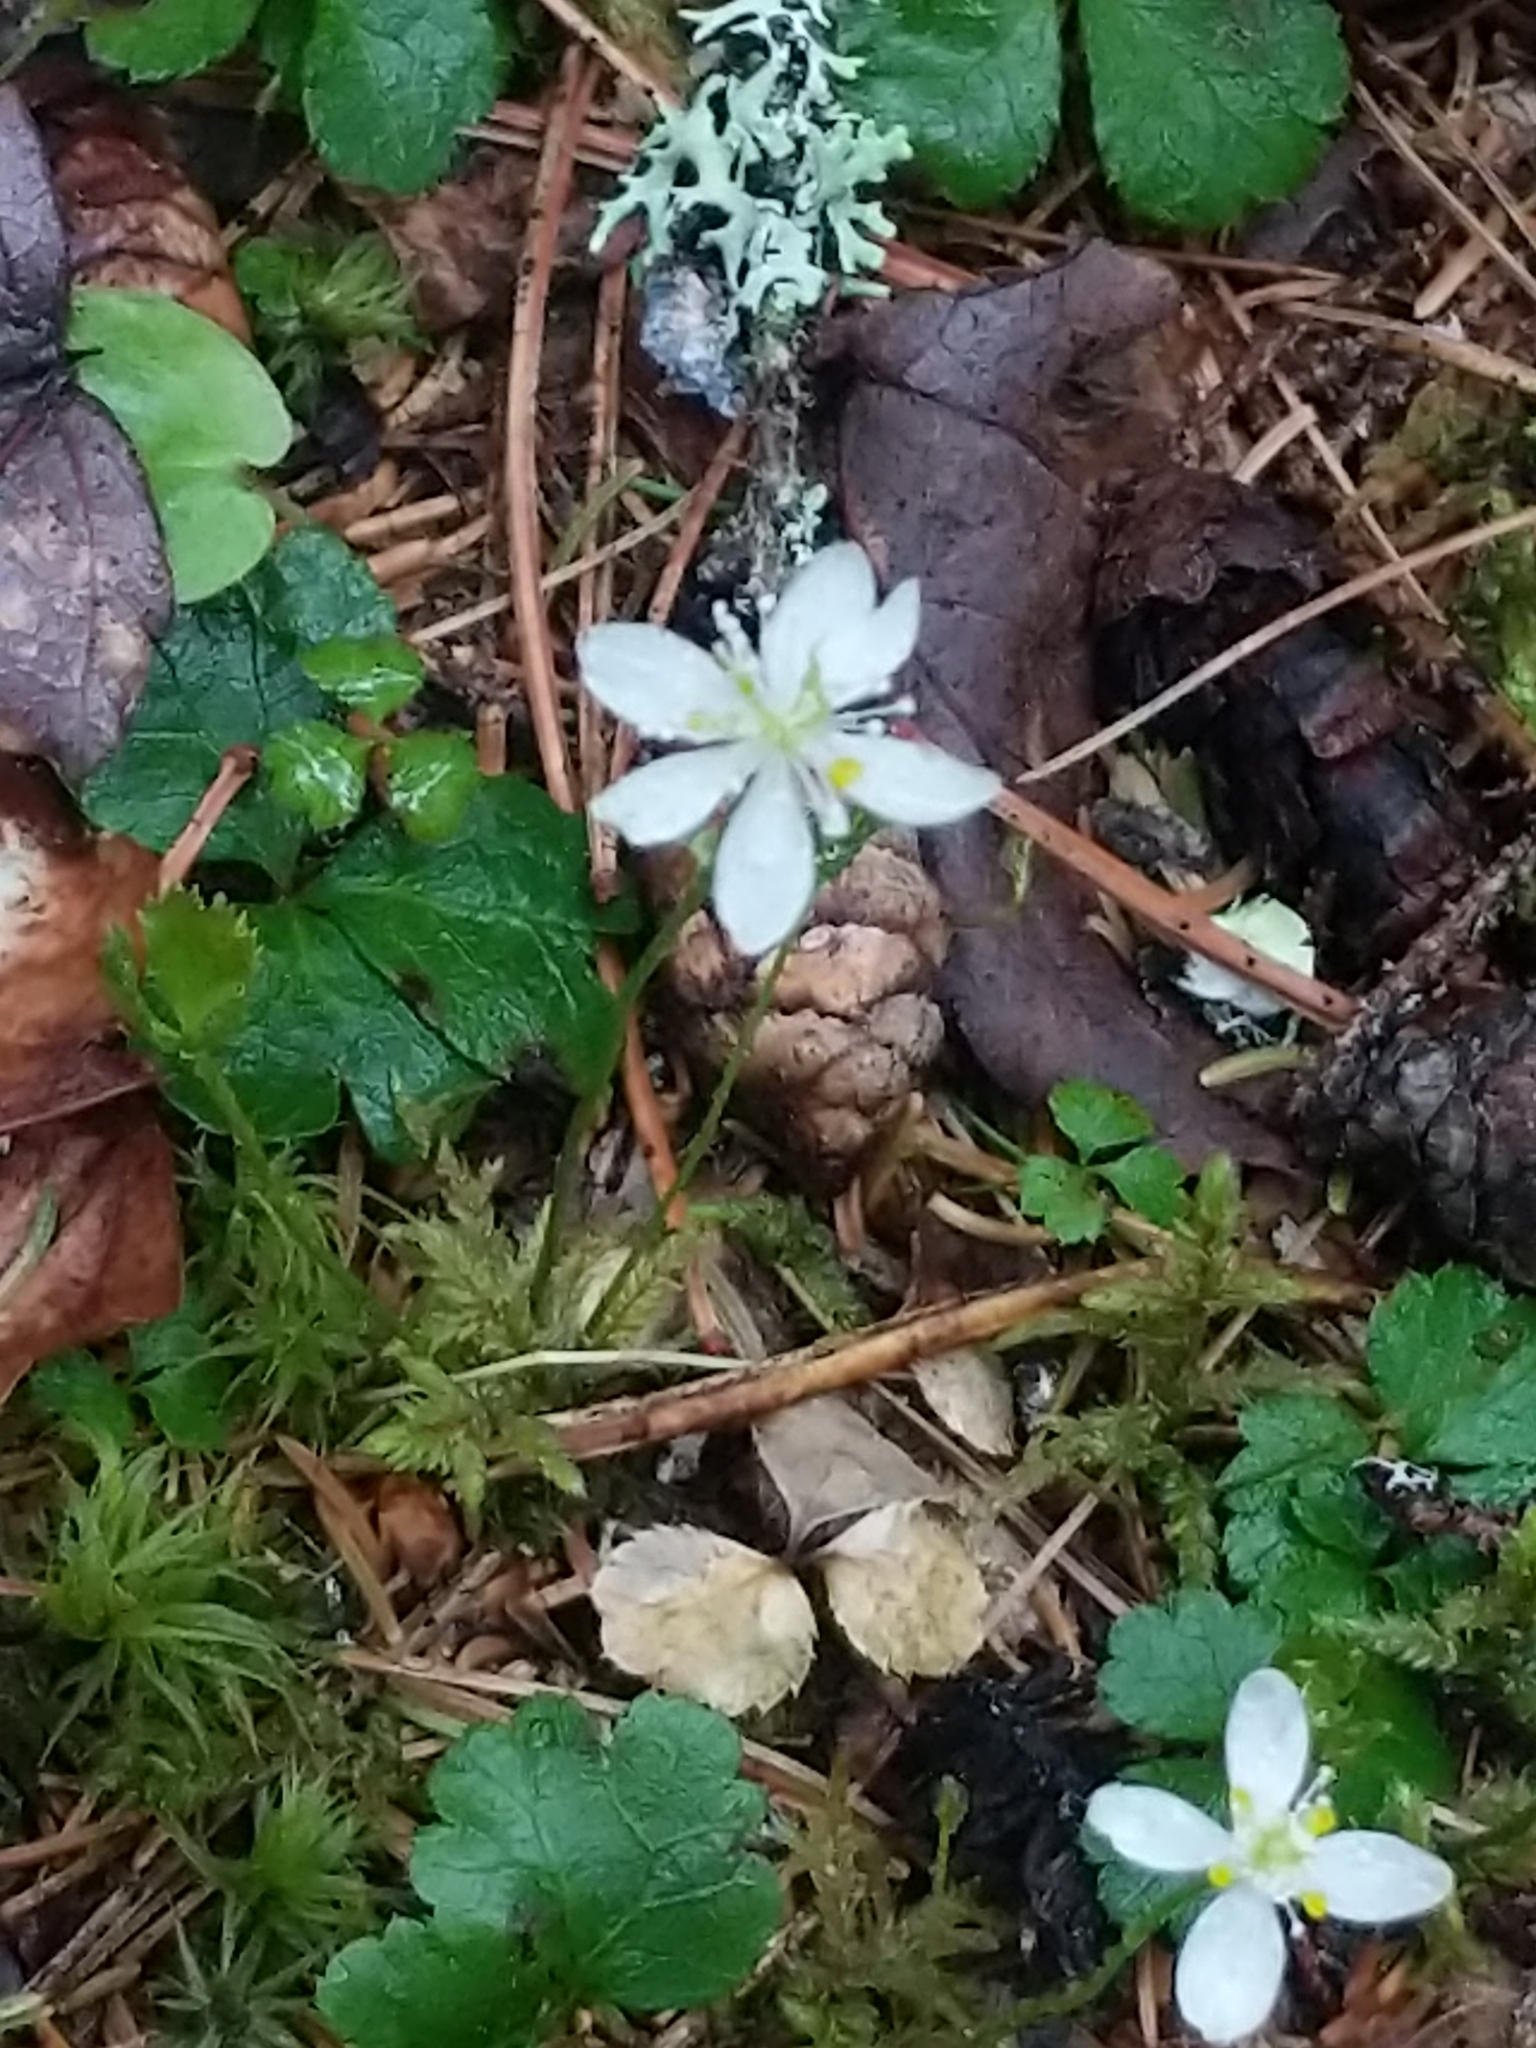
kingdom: Plantae
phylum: Tracheophyta
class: Magnoliopsida
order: Ranunculales
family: Ranunculaceae
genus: Coptis
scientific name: Coptis trifolia
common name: Canker-root
